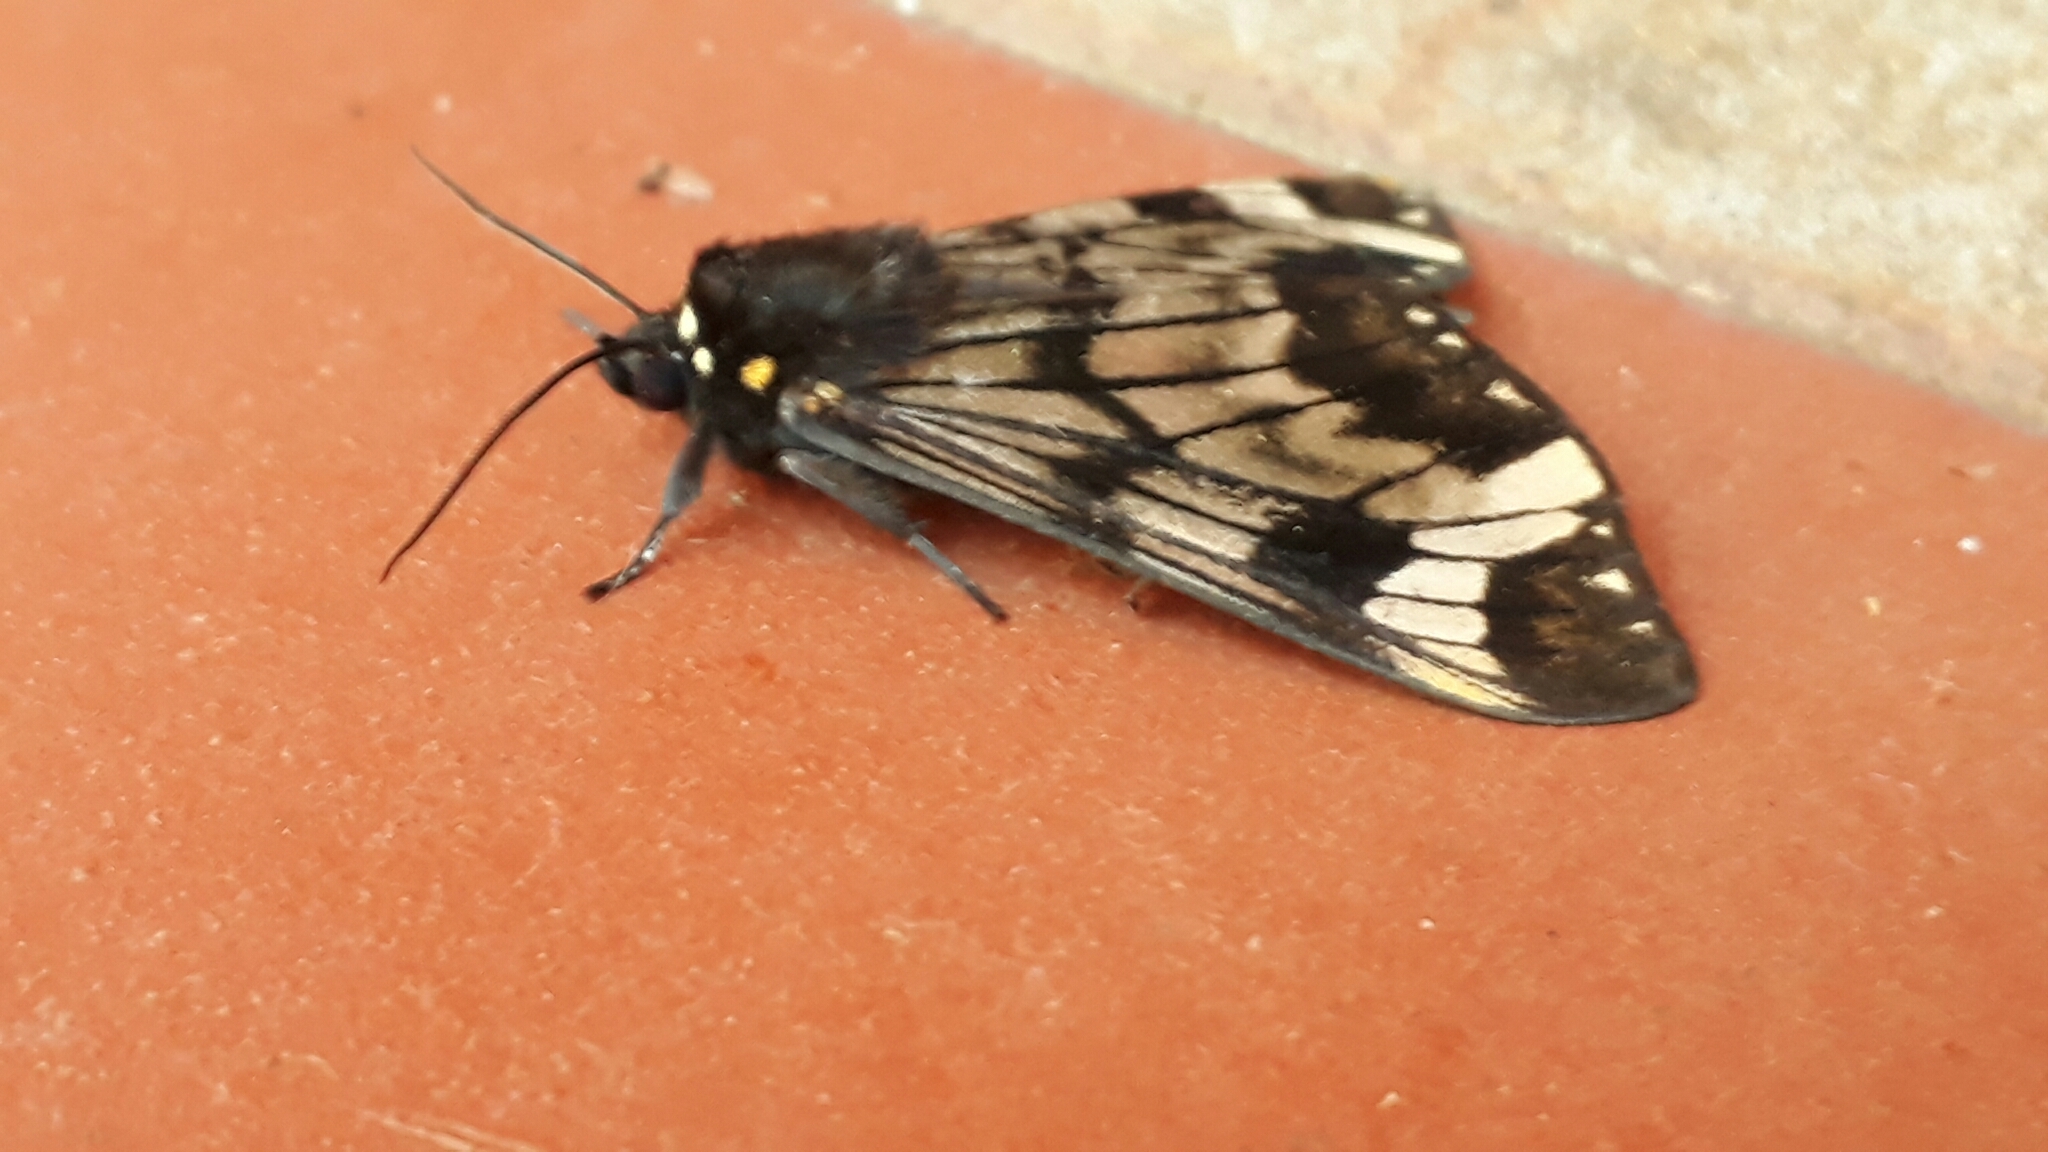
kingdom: Animalia
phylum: Arthropoda
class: Insecta
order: Lepidoptera
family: Erebidae
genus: Dysschema
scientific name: Dysschema hilara
